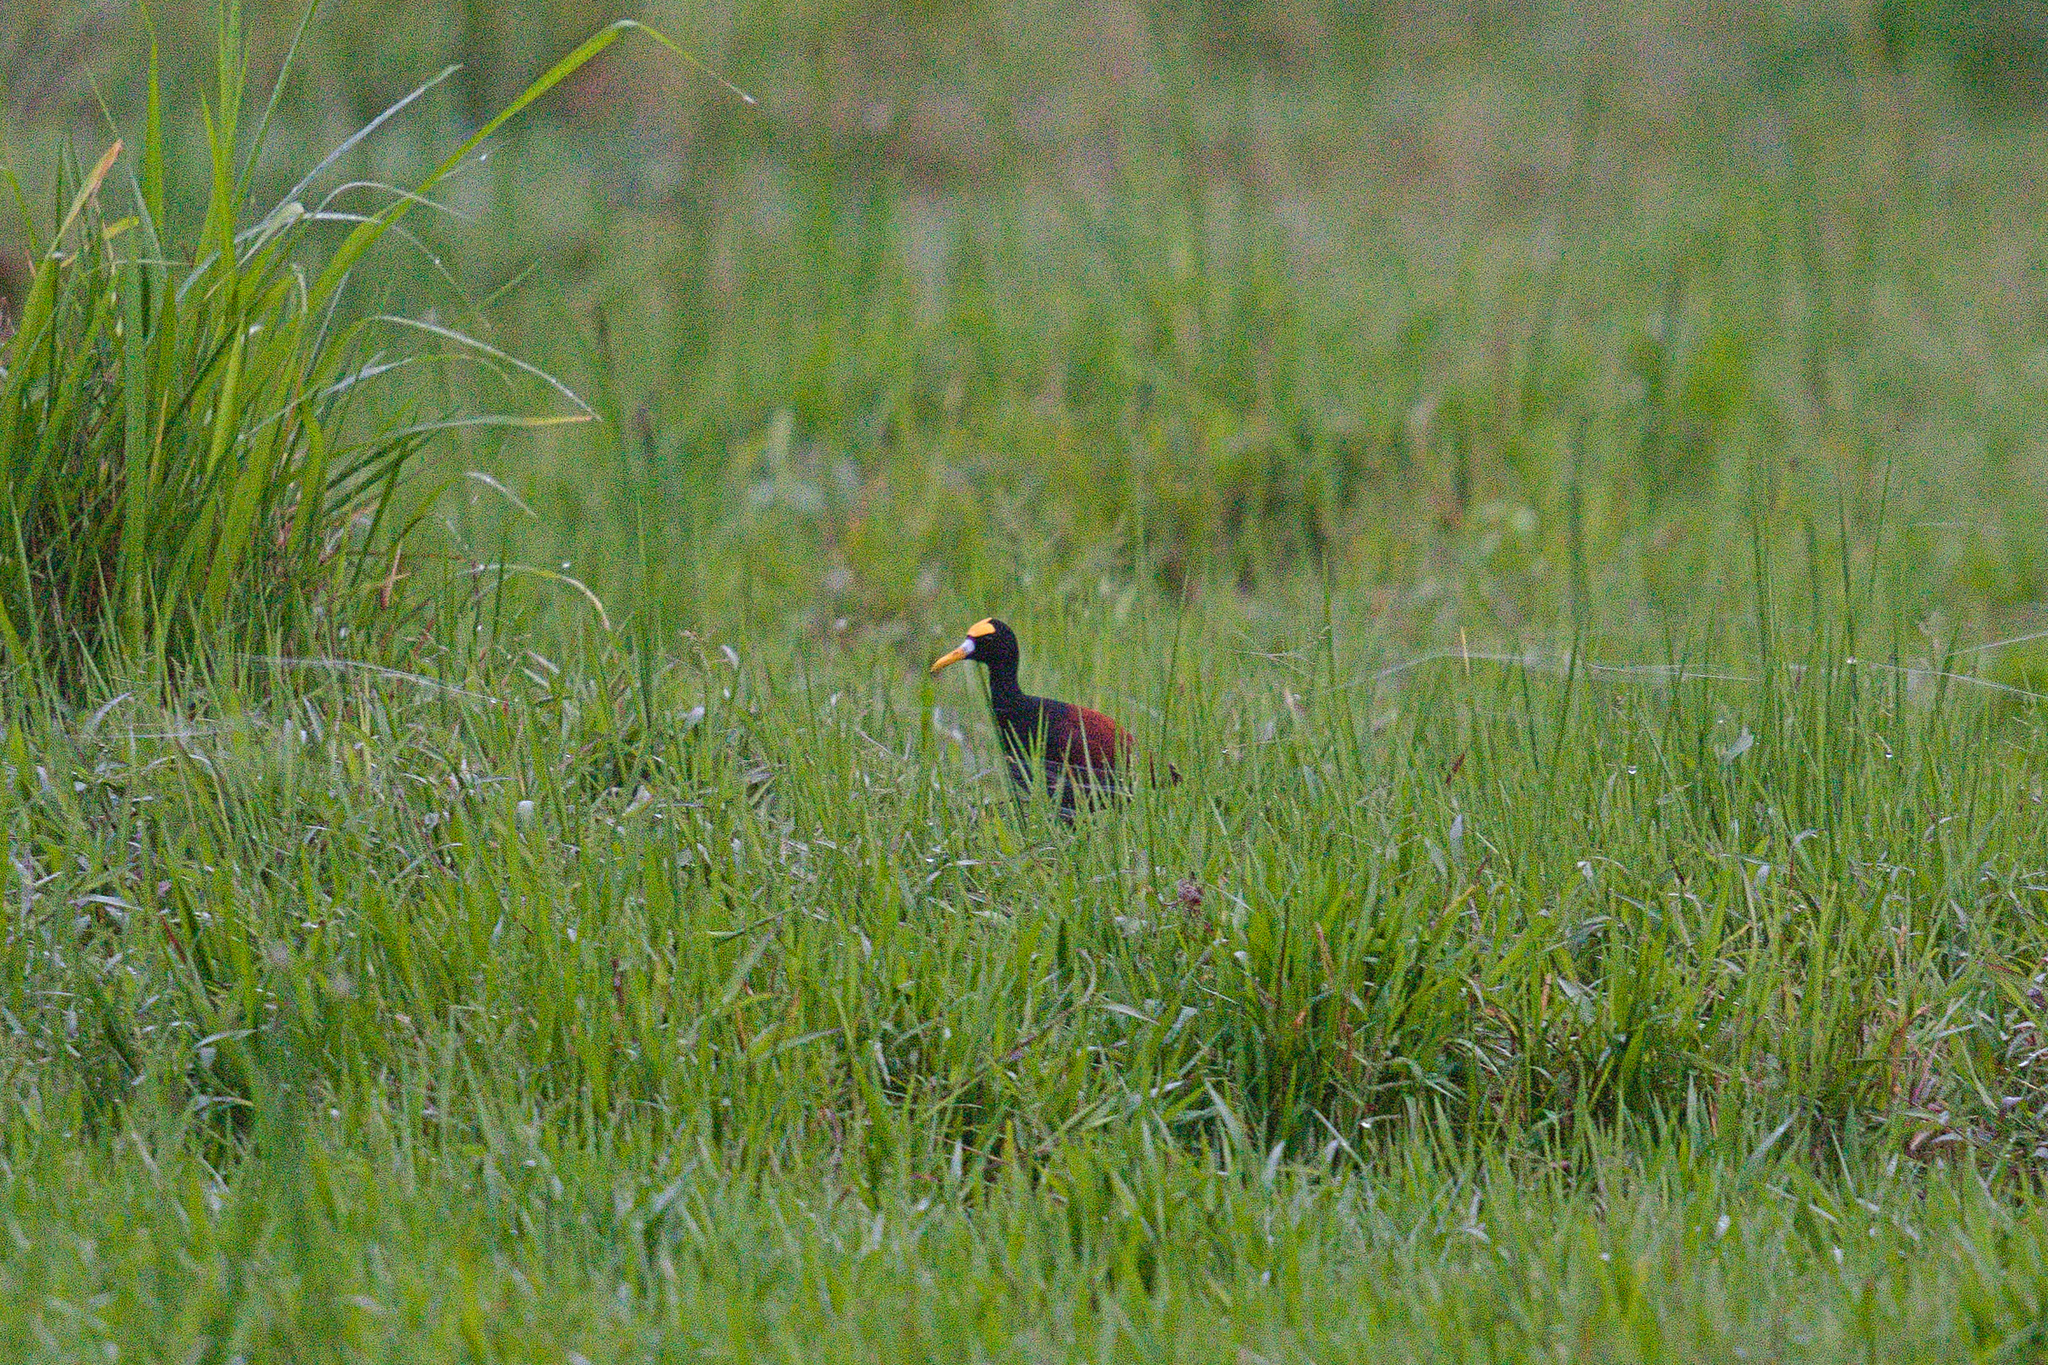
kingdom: Animalia
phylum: Chordata
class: Aves
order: Charadriiformes
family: Jacanidae
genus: Jacana
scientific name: Jacana spinosa
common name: Northern jacana
